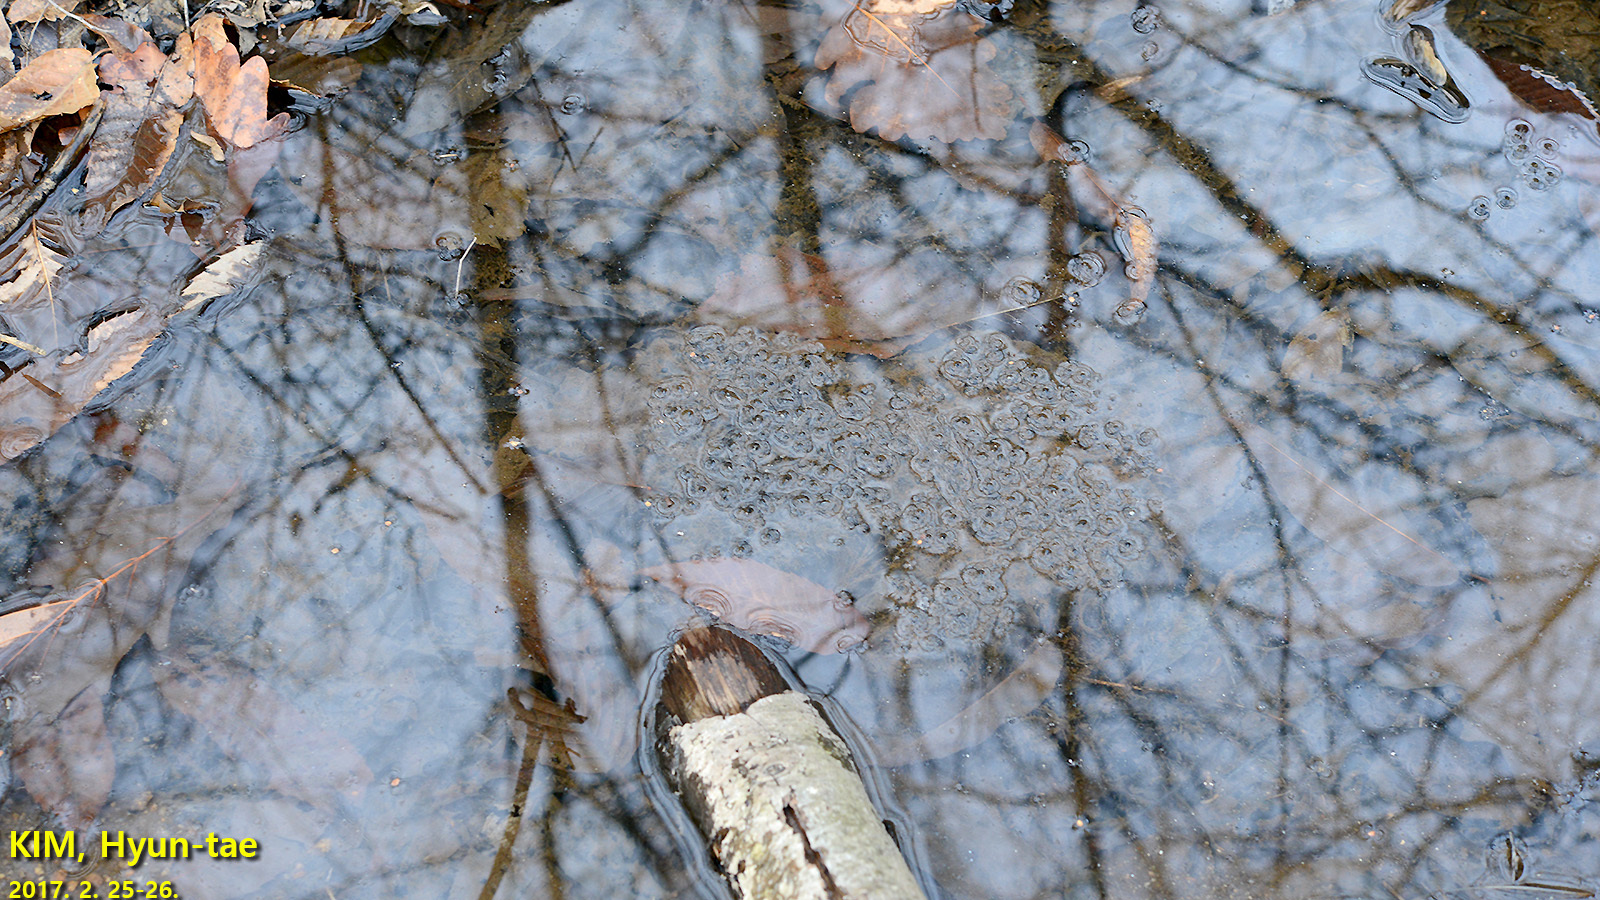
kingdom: Animalia
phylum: Chordata
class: Amphibia
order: Anura
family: Ranidae
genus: Rana
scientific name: Rana uenoi
